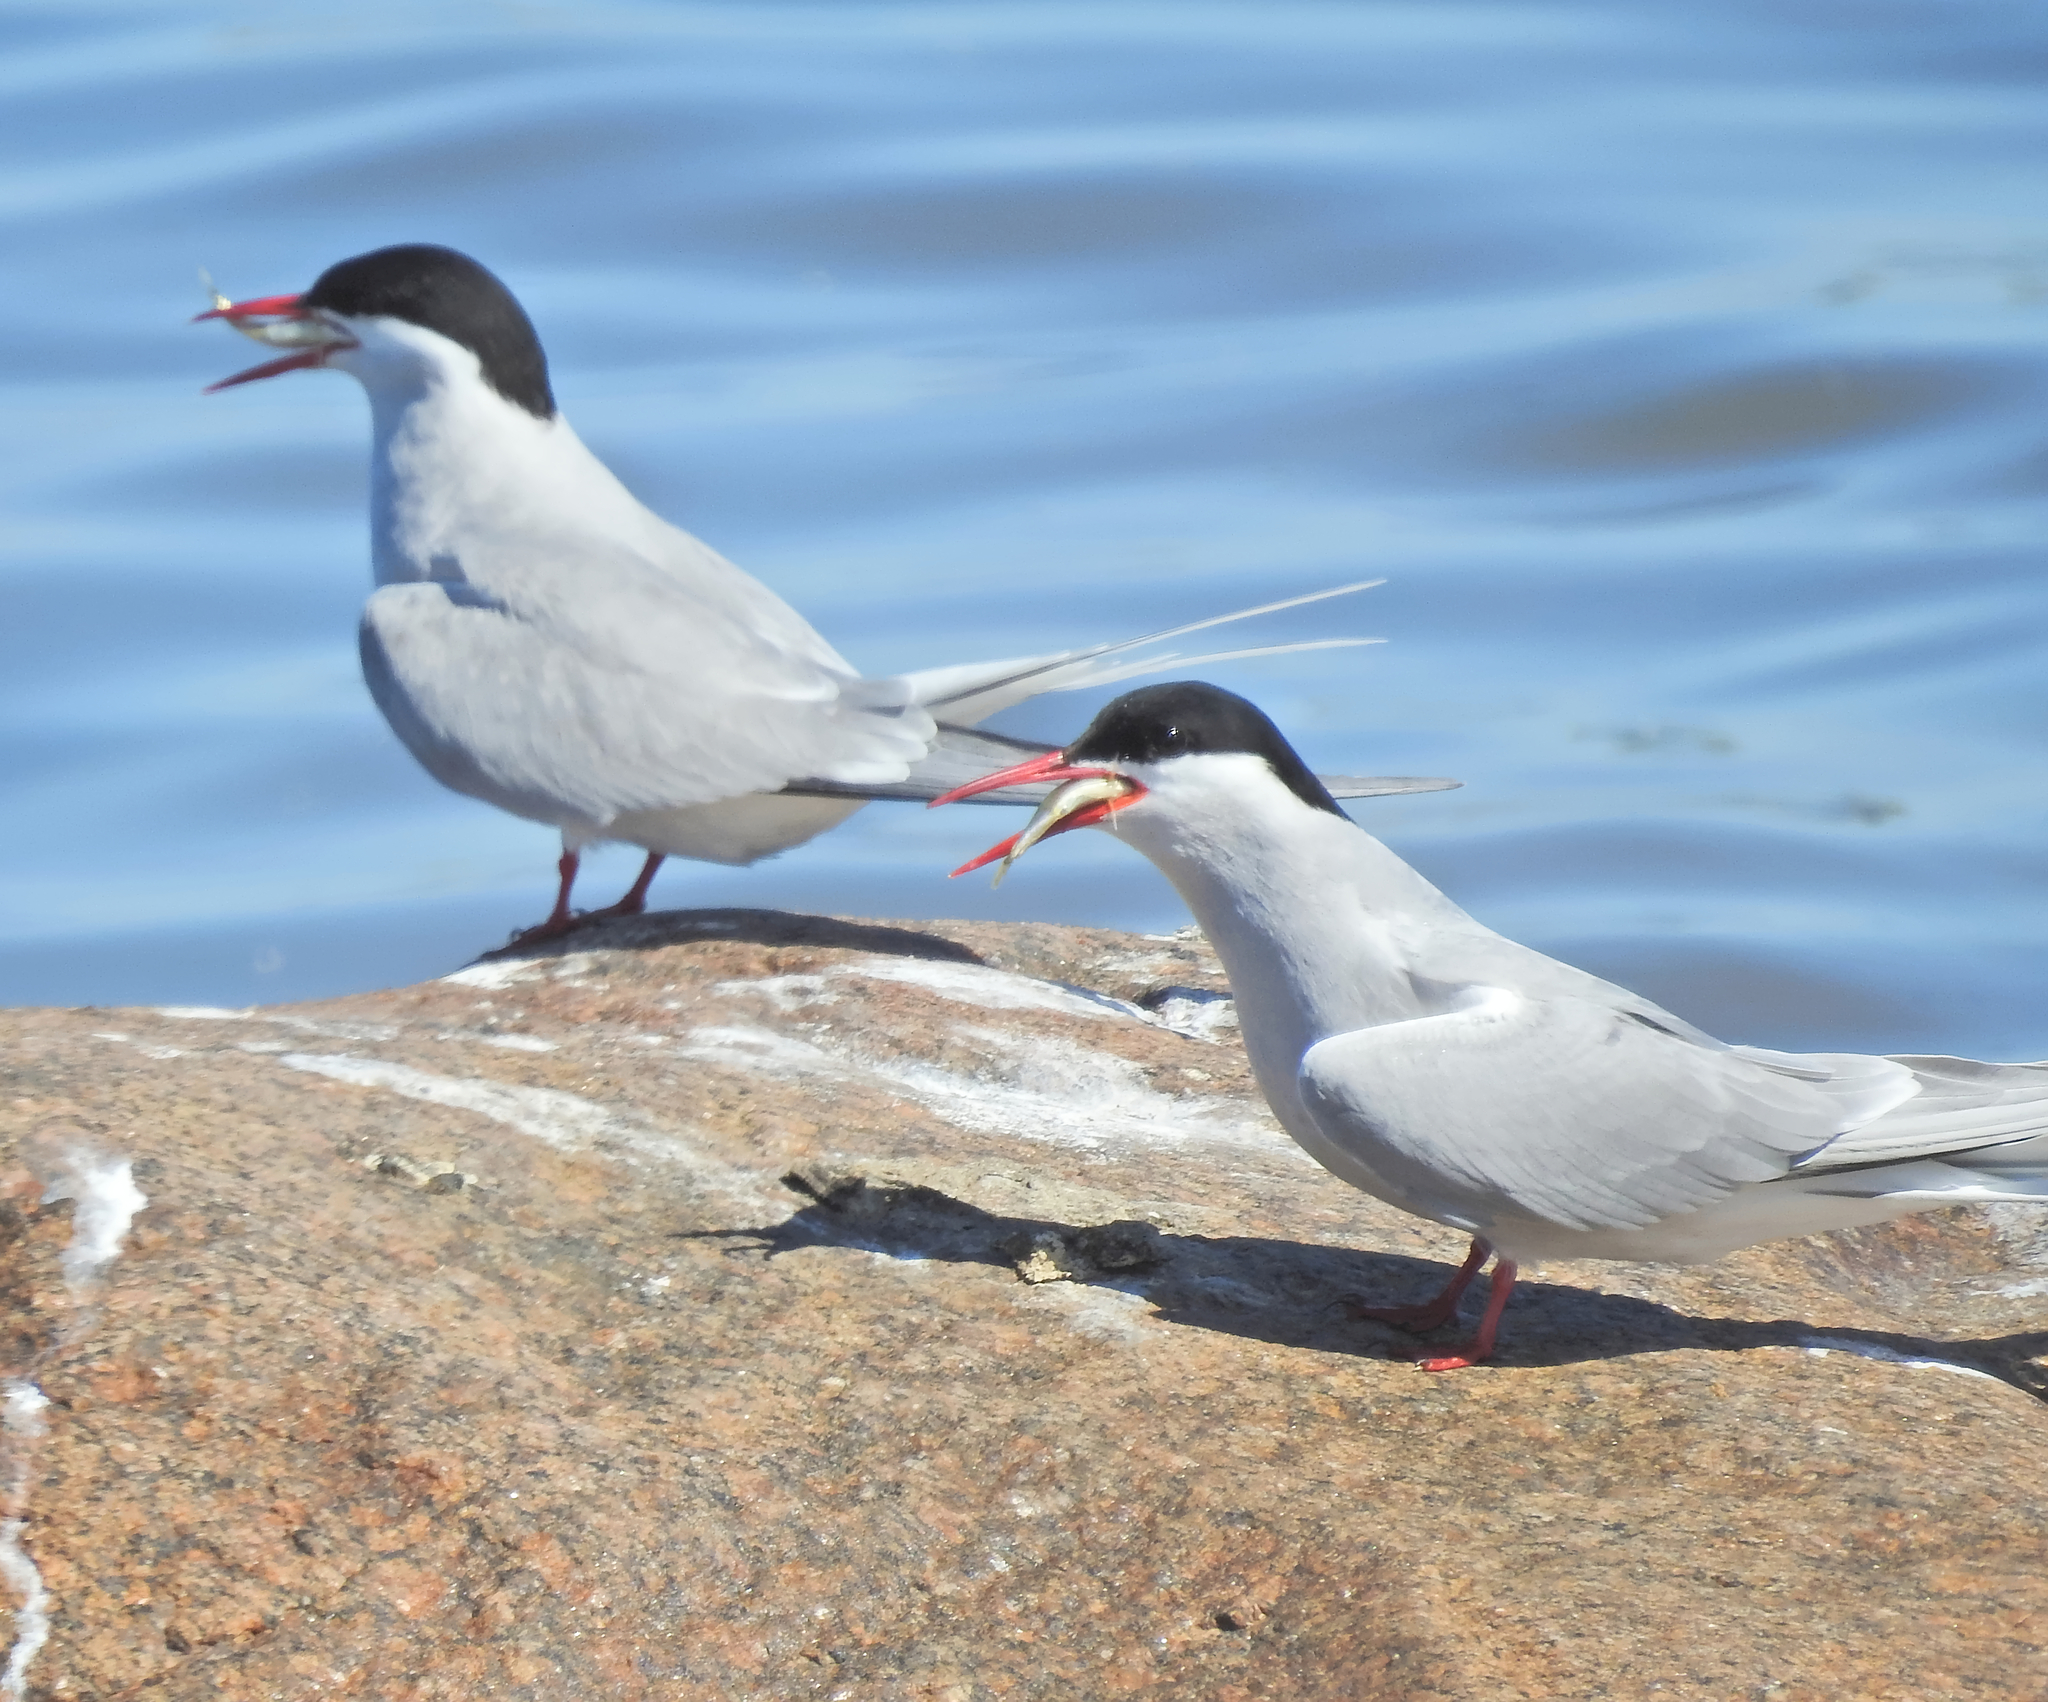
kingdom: Animalia
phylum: Chordata
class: Aves
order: Charadriiformes
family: Laridae
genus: Sterna
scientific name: Sterna paradisaea
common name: Arctic tern
